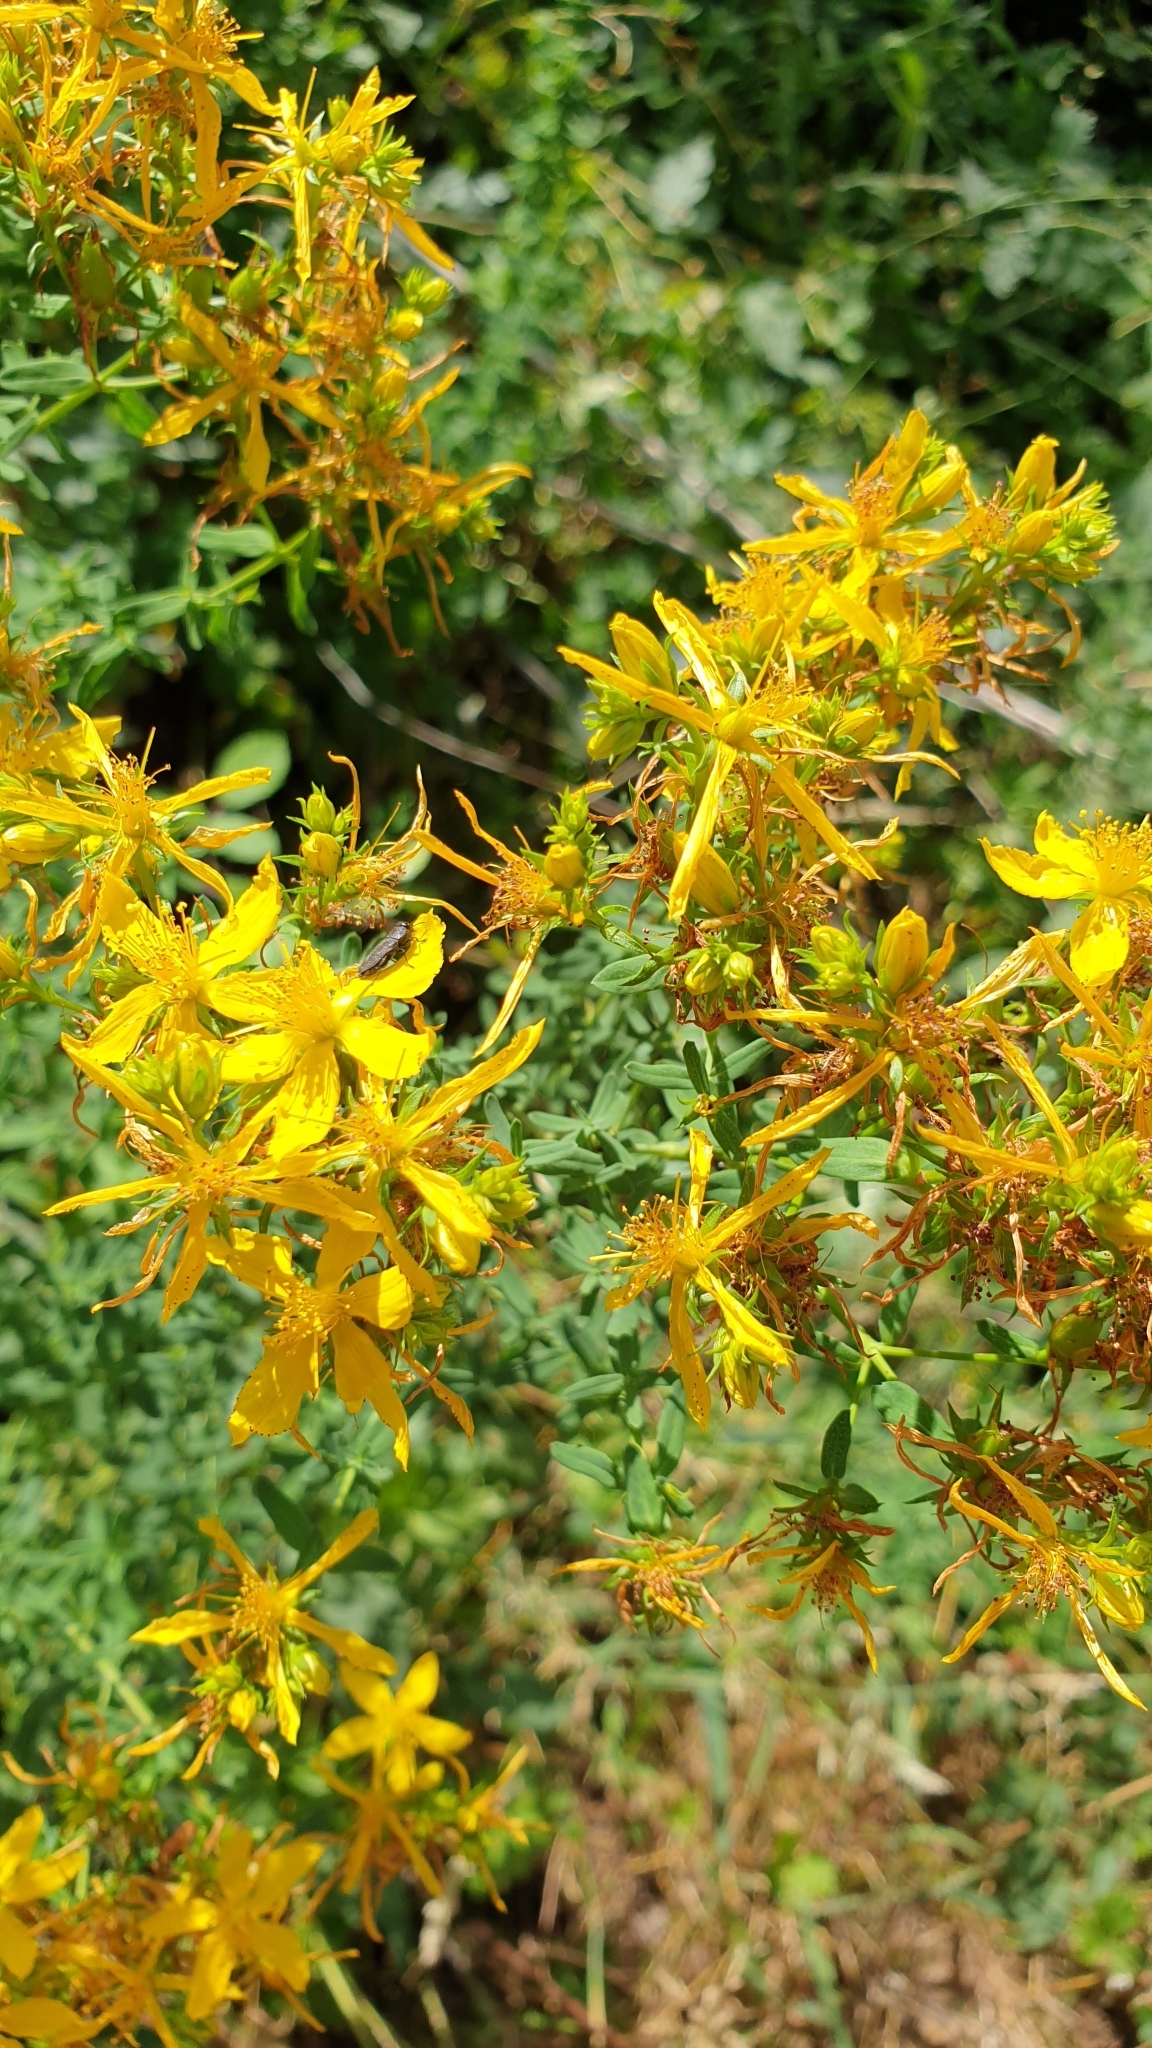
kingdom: Plantae
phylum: Tracheophyta
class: Magnoliopsida
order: Malpighiales
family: Hypericaceae
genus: Hypericum
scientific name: Hypericum perforatum
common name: Common st. johnswort
